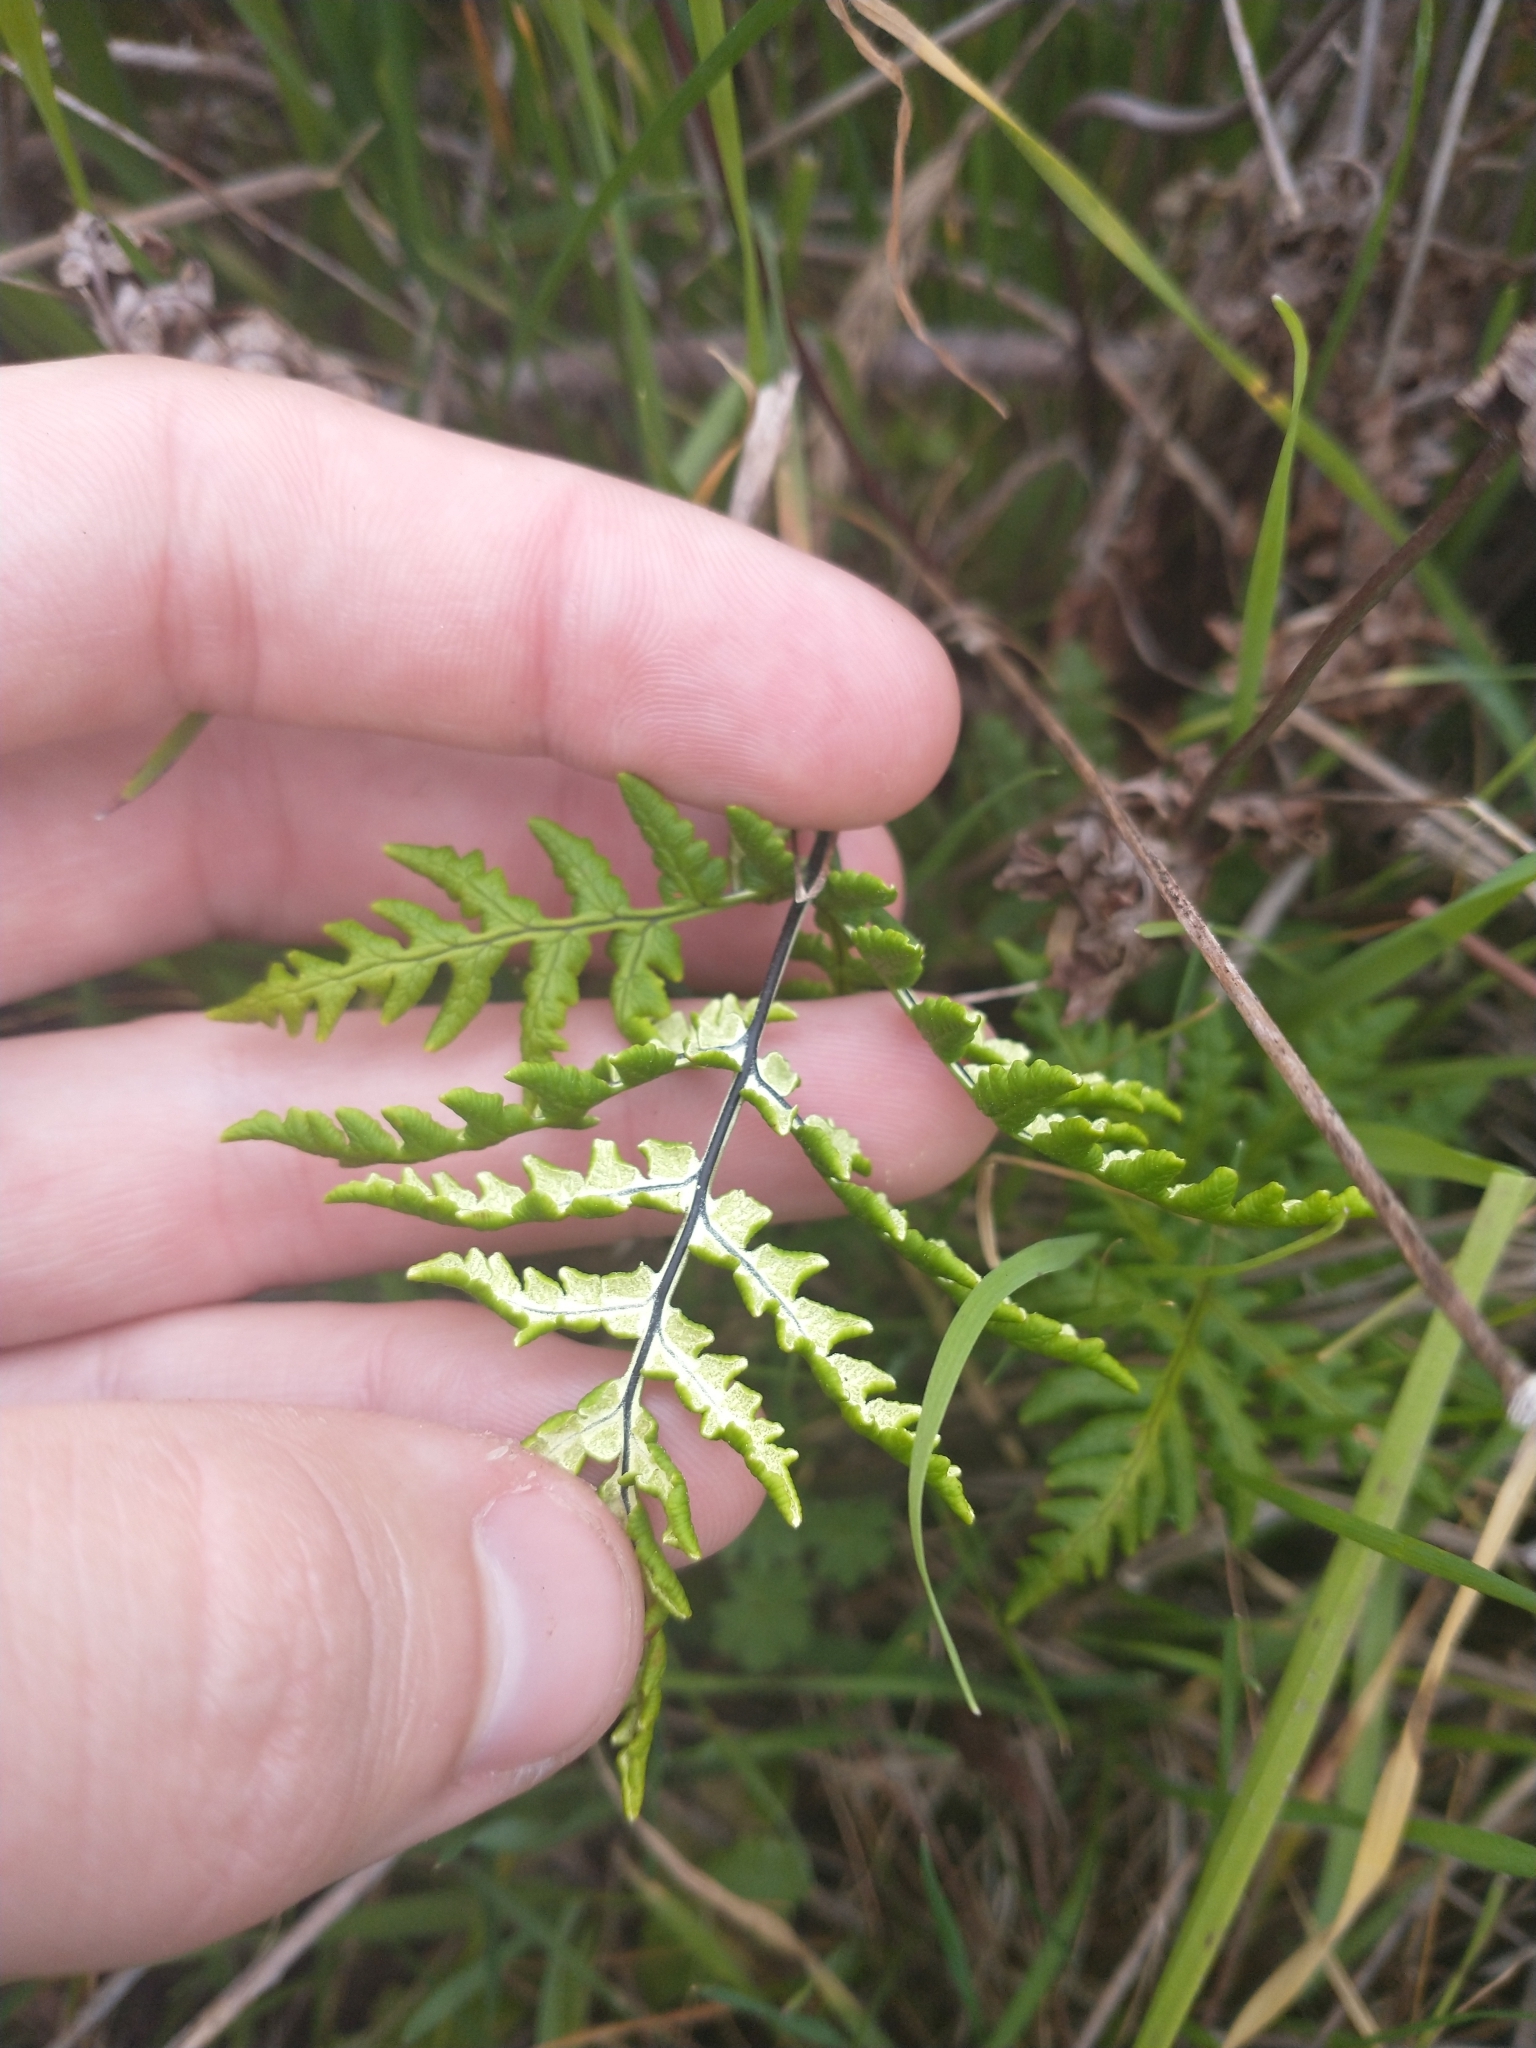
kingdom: Plantae
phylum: Tracheophyta
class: Polypodiopsida
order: Polypodiales
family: Pteridaceae
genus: Pentagramma
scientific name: Pentagramma triangularis
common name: Gold fern
